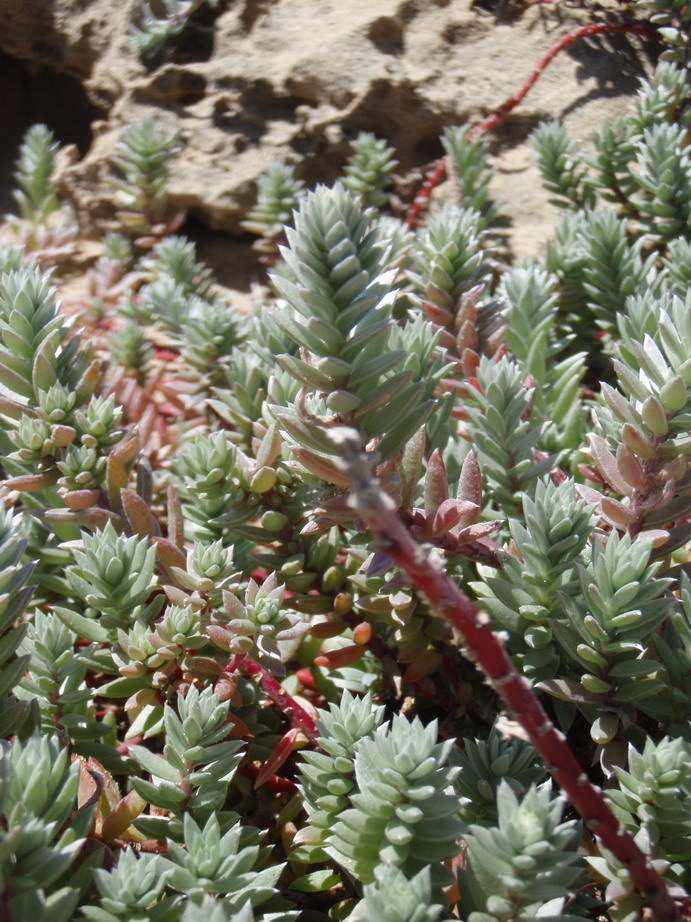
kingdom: Plantae
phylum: Tracheophyta
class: Magnoliopsida
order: Caryophyllales
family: Amaranthaceae
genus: Chenolea
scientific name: Chenolea diffusa
